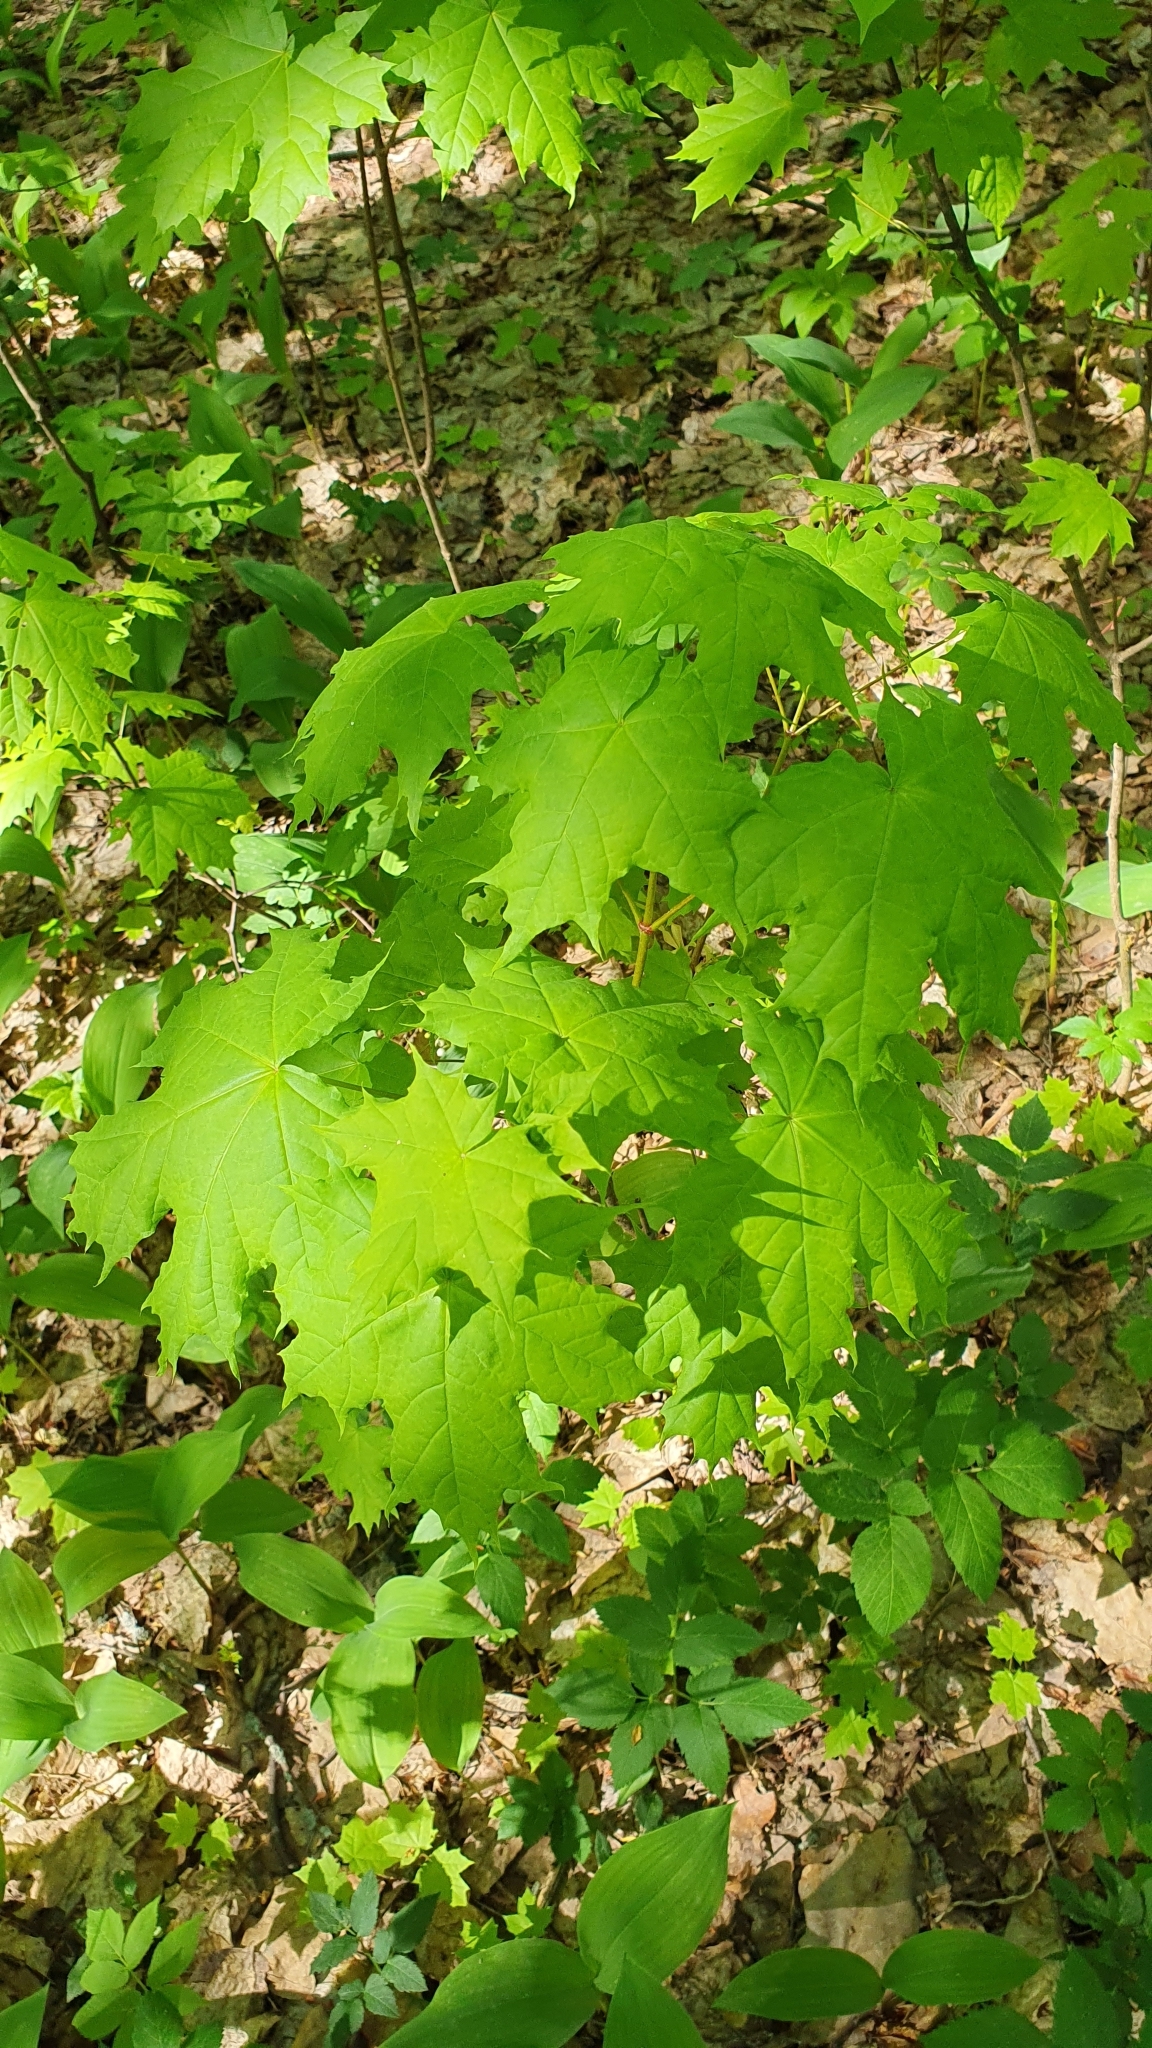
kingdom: Plantae
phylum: Tracheophyta
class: Magnoliopsida
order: Sapindales
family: Sapindaceae
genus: Acer
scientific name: Acer platanoides
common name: Norway maple
